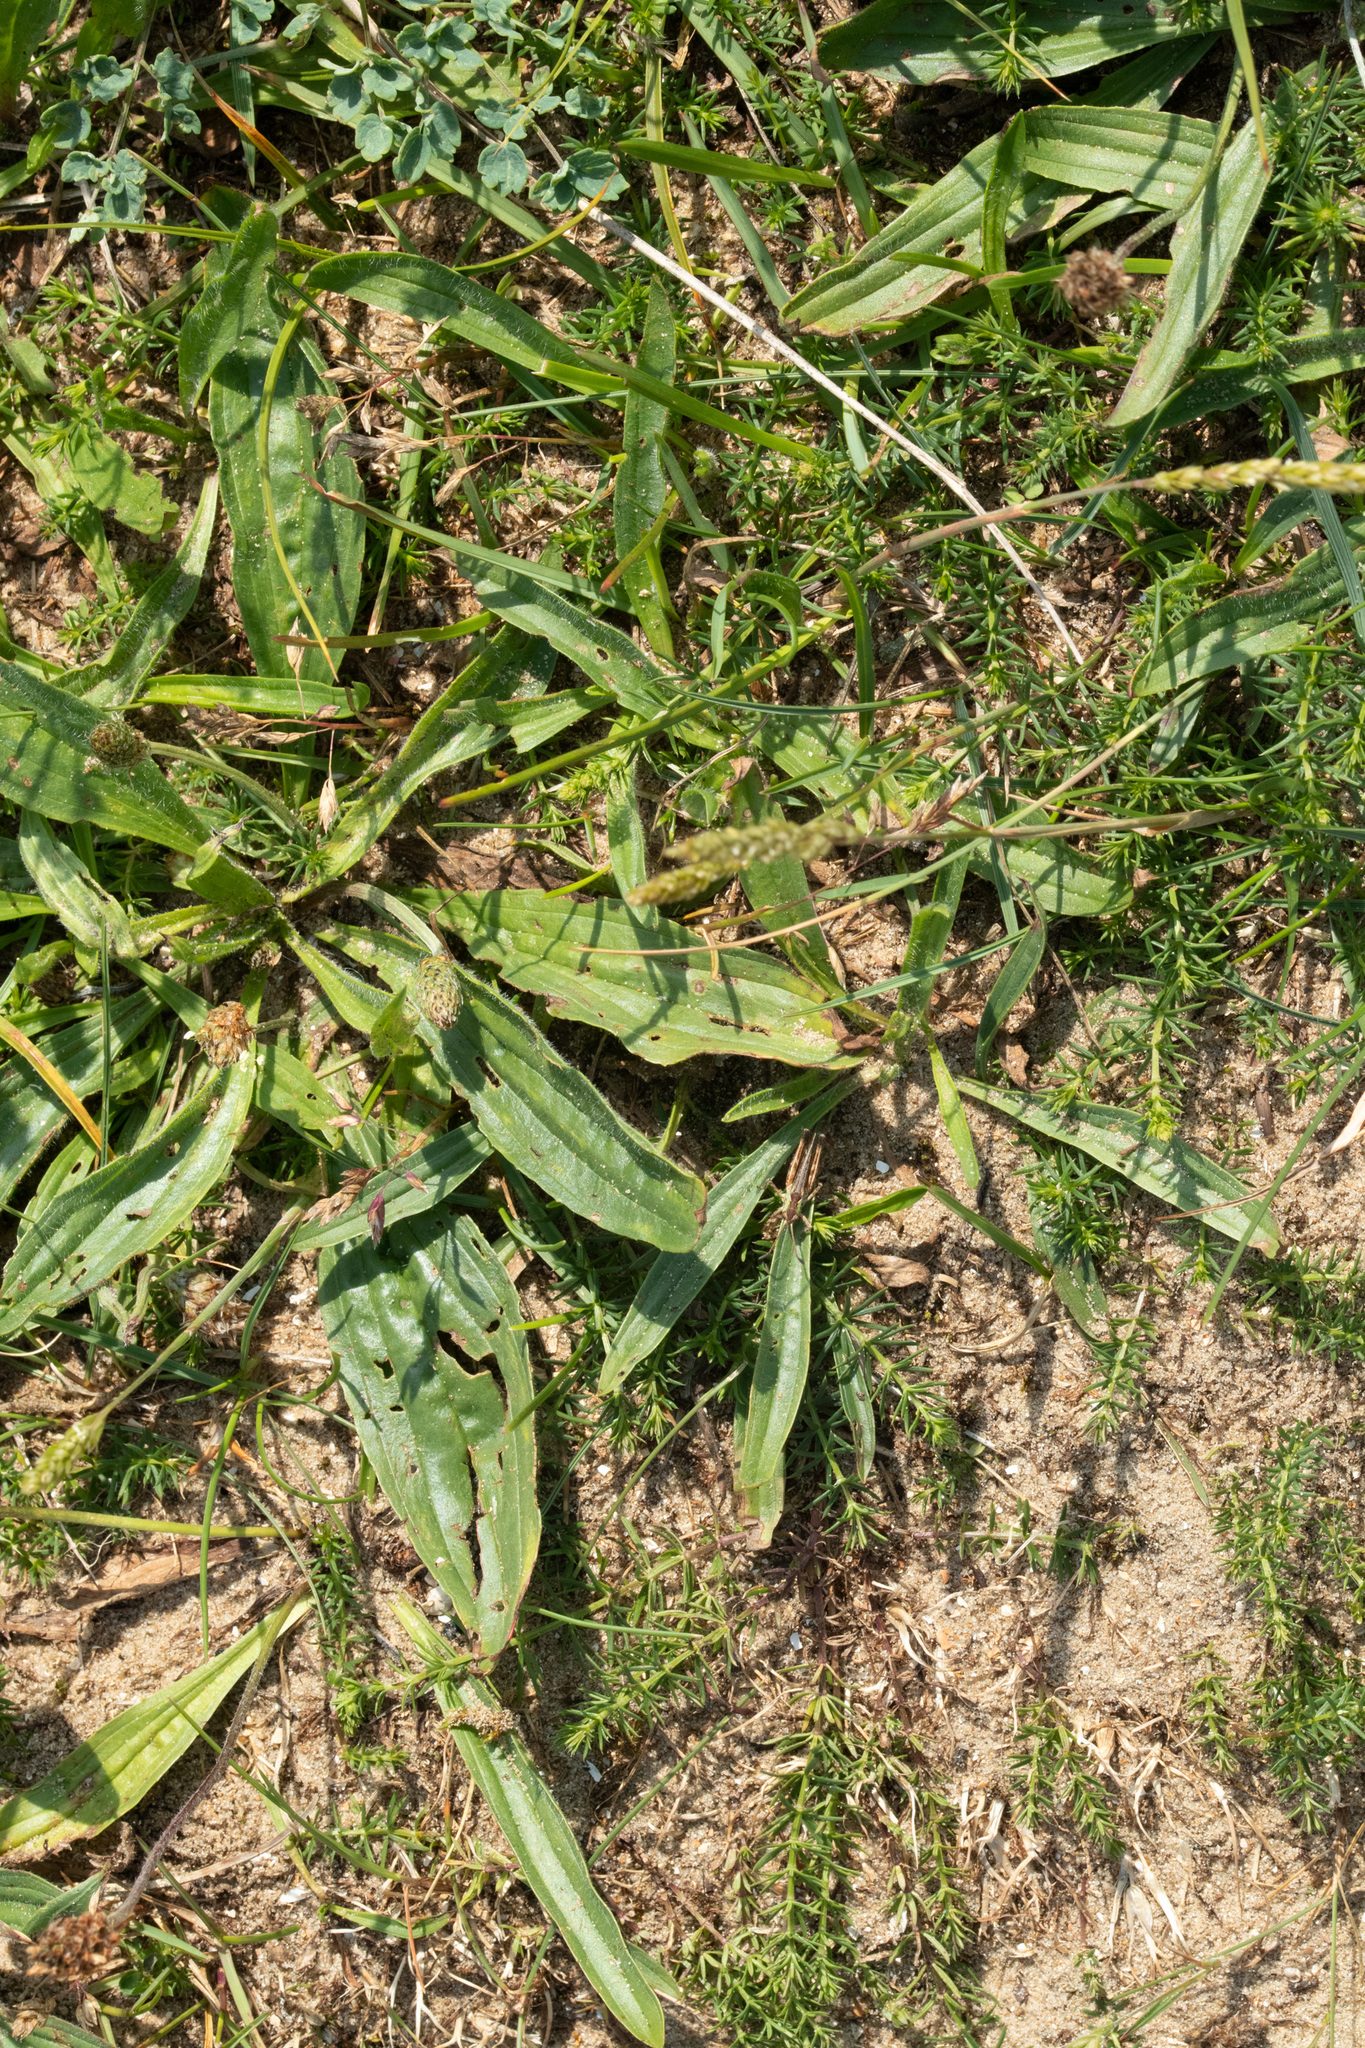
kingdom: Plantae
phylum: Tracheophyta
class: Magnoliopsida
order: Lamiales
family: Plantaginaceae
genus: Plantago
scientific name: Plantago lanceolata
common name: Ribwort plantain
